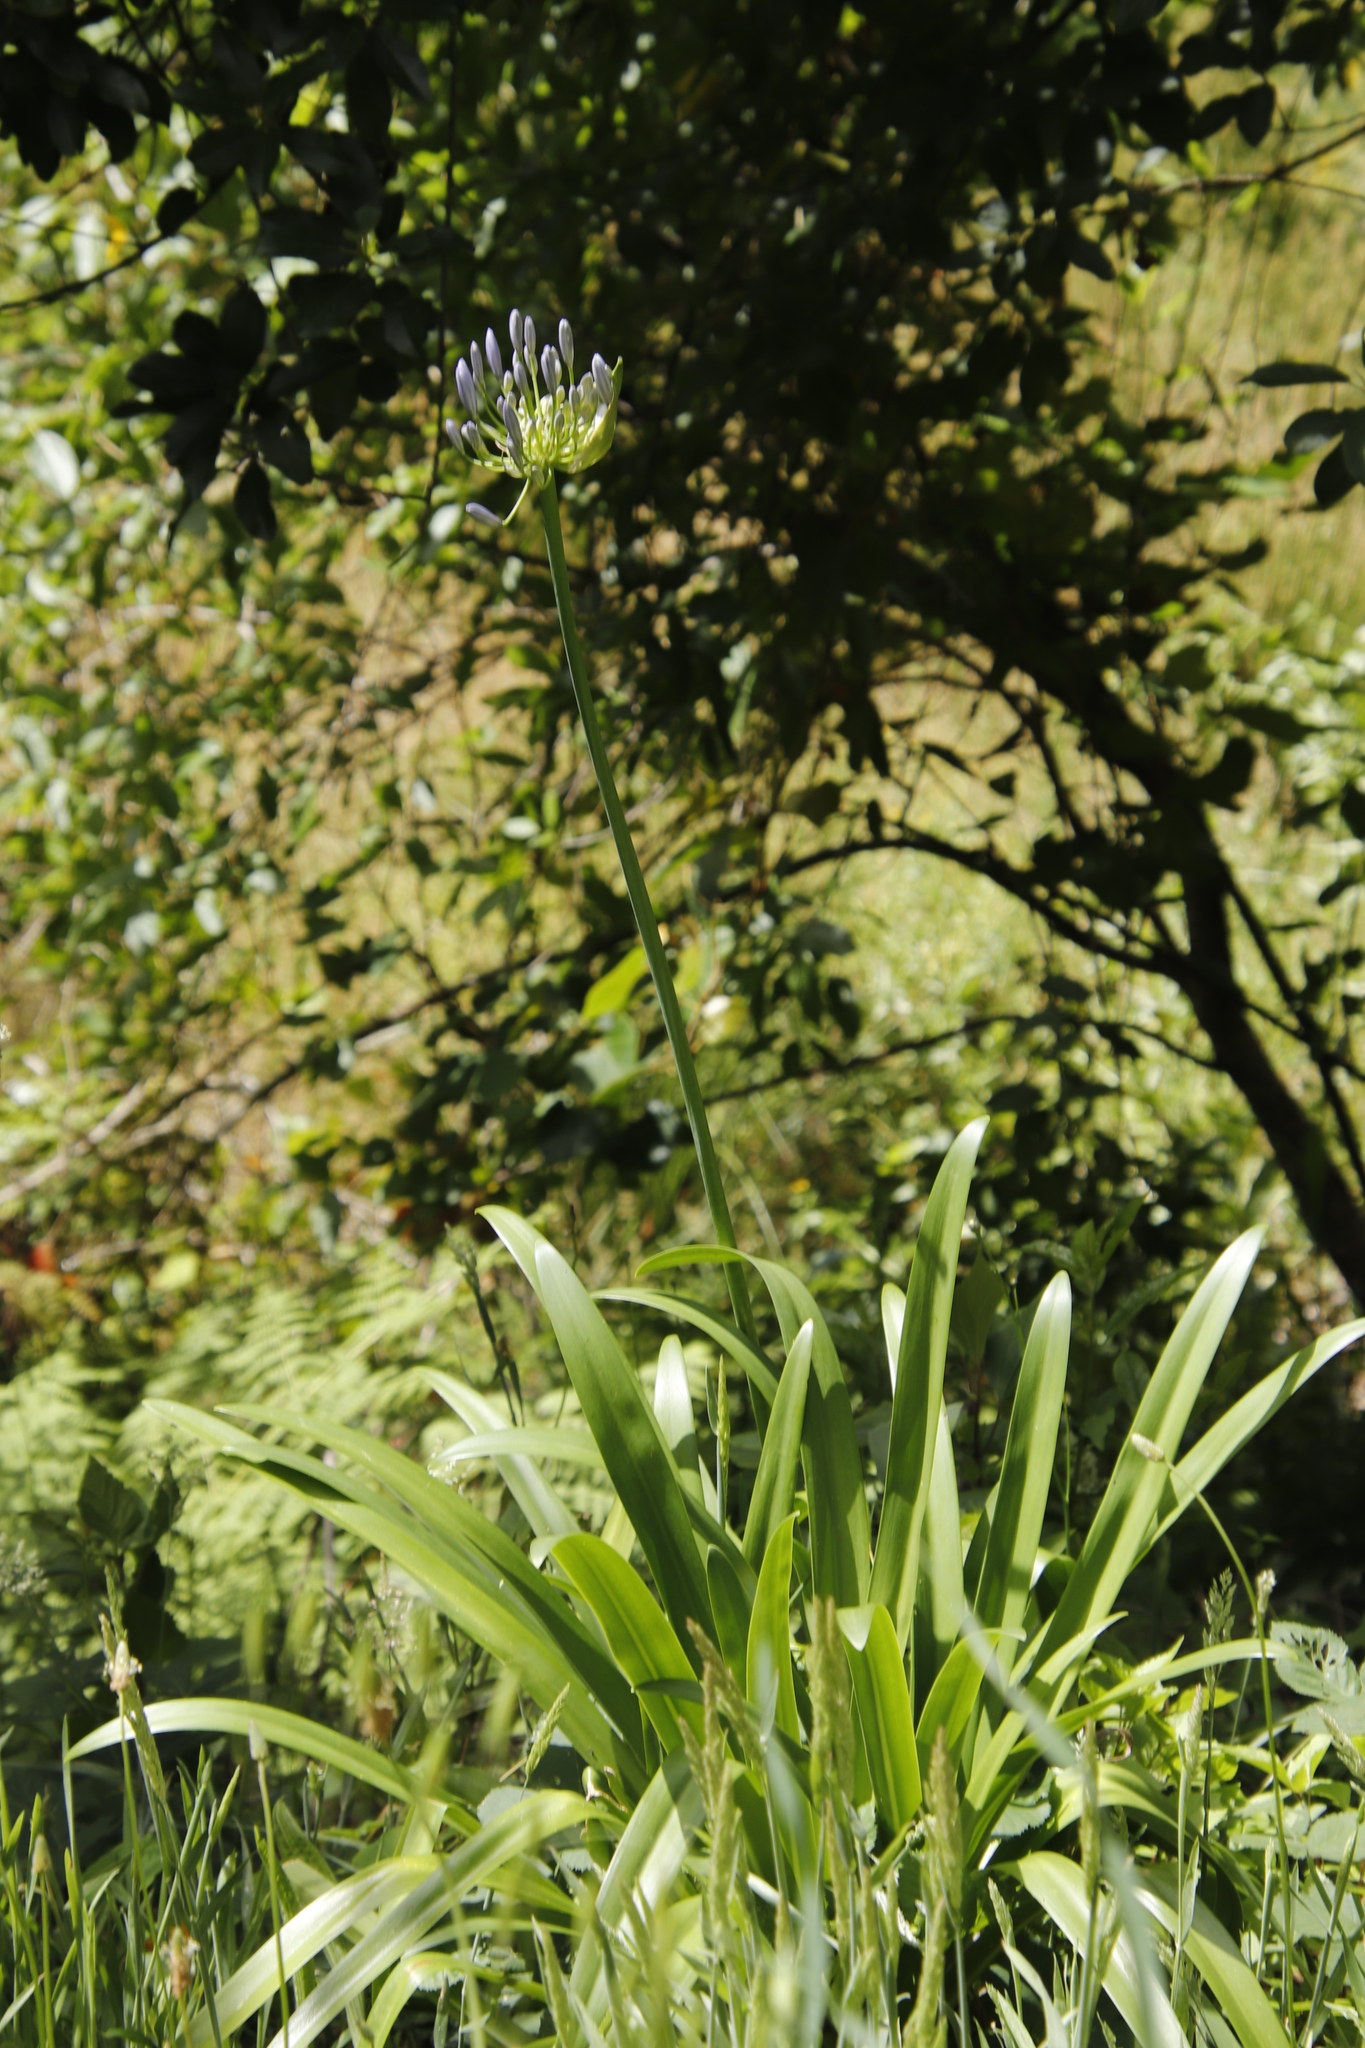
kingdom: Plantae
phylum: Tracheophyta
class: Liliopsida
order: Asparagales
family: Amaryllidaceae
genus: Agapanthus
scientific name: Agapanthus praecox
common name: African-lily
